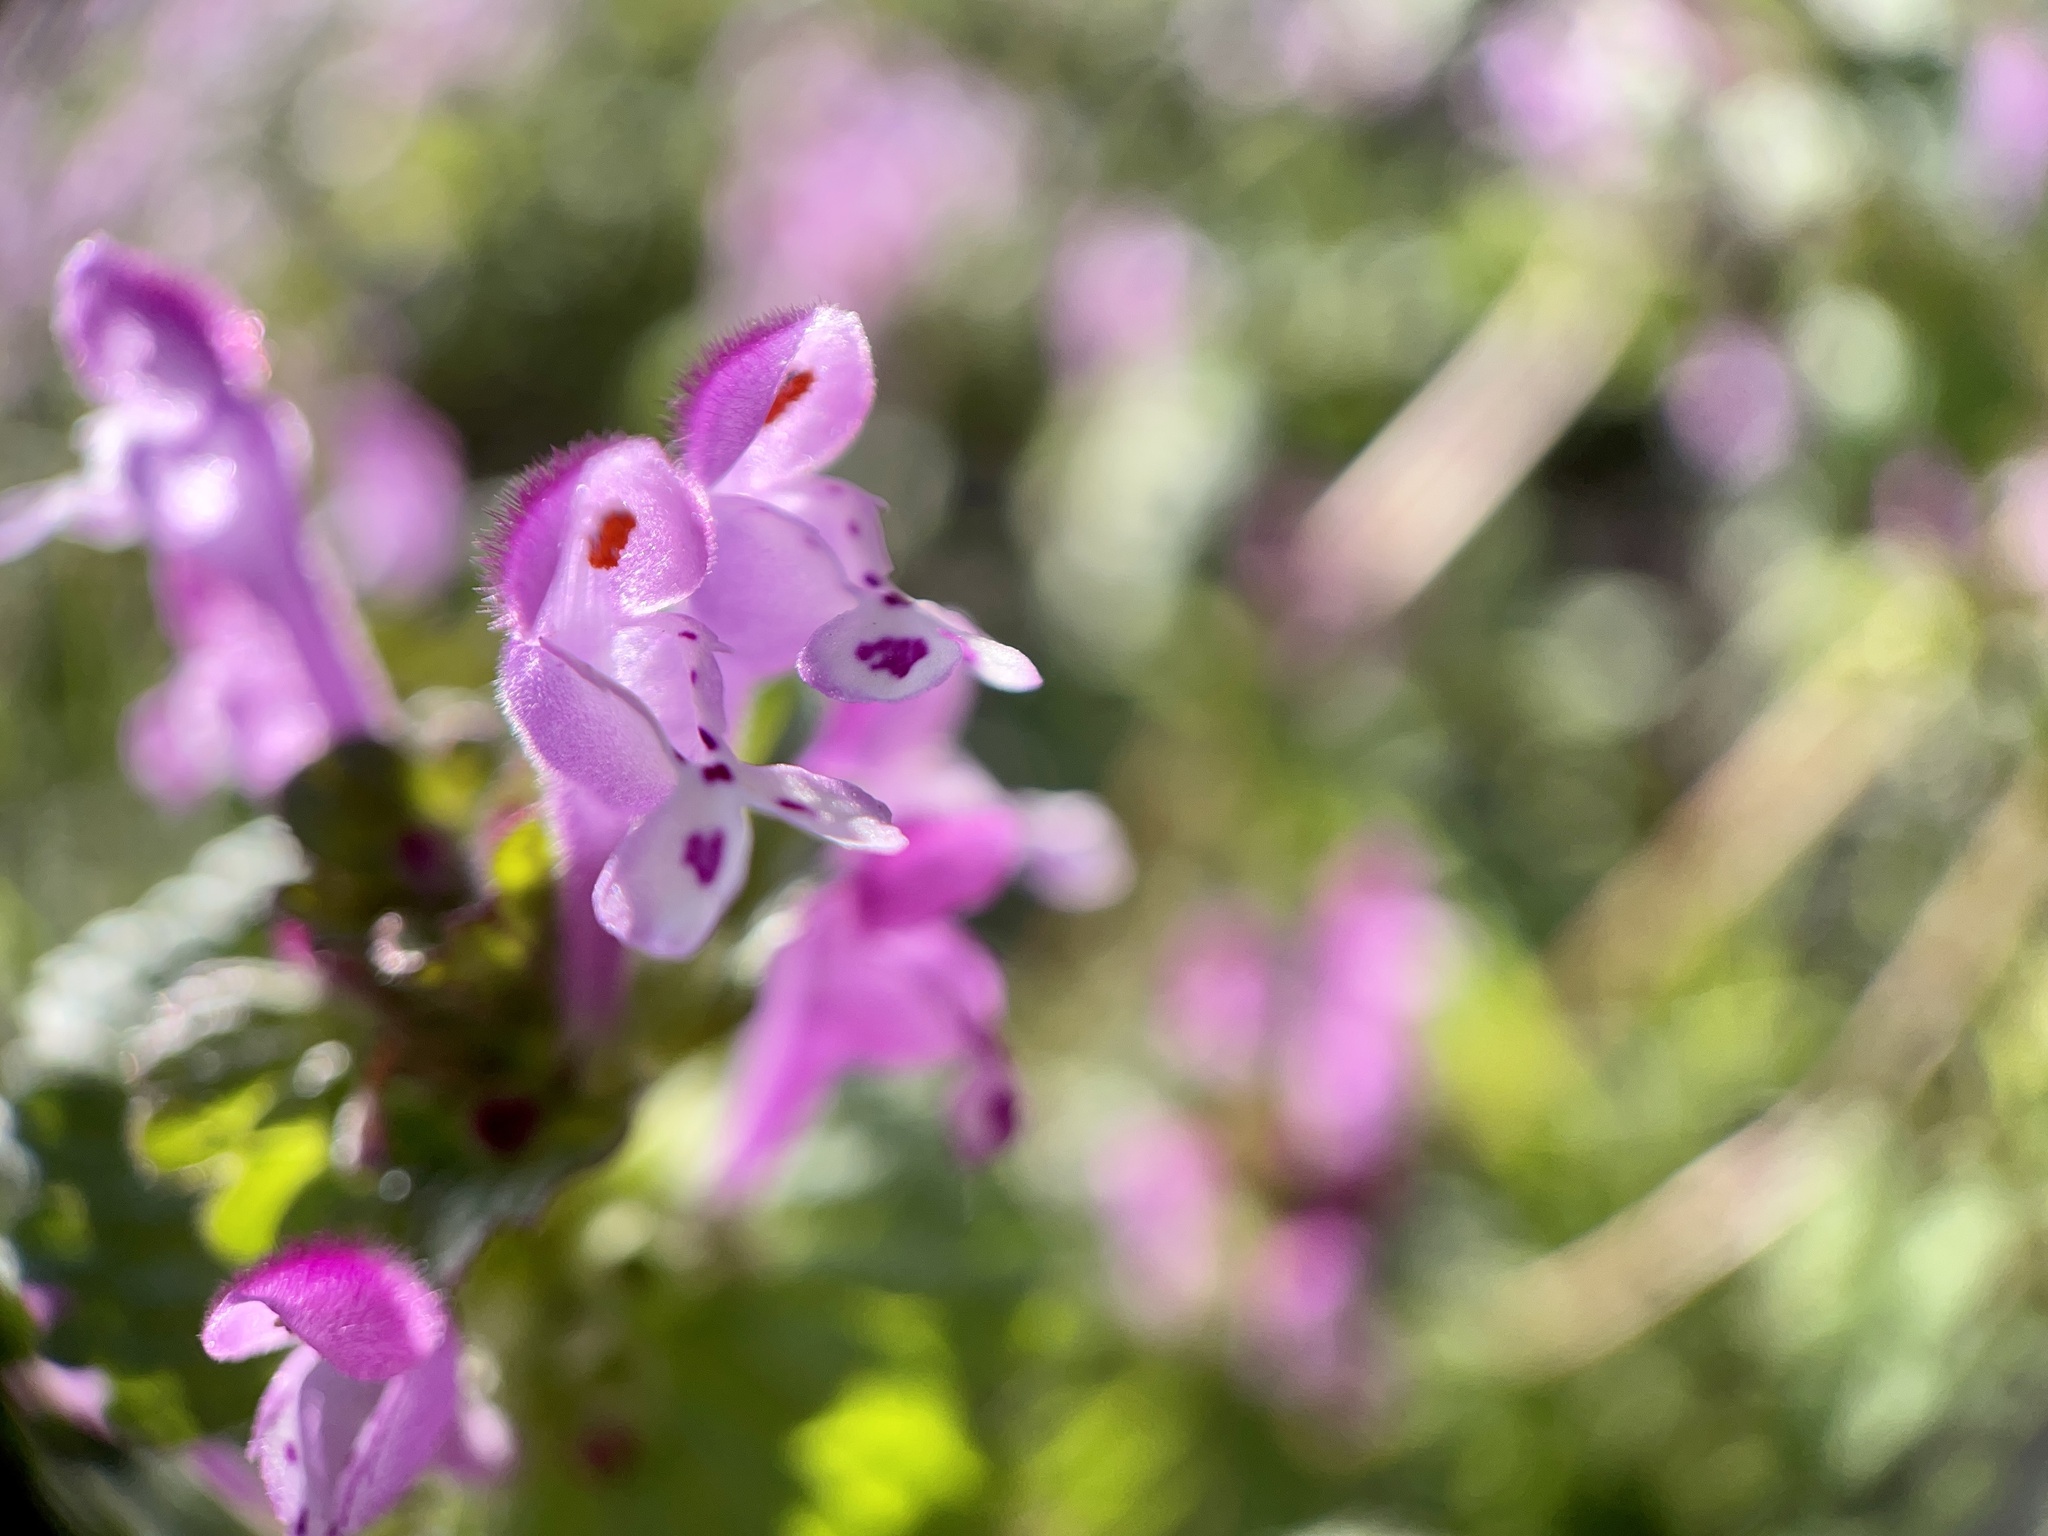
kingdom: Plantae
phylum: Tracheophyta
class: Magnoliopsida
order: Lamiales
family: Lamiaceae
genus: Lamium
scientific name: Lamium amplexicaule
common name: Henbit dead-nettle
